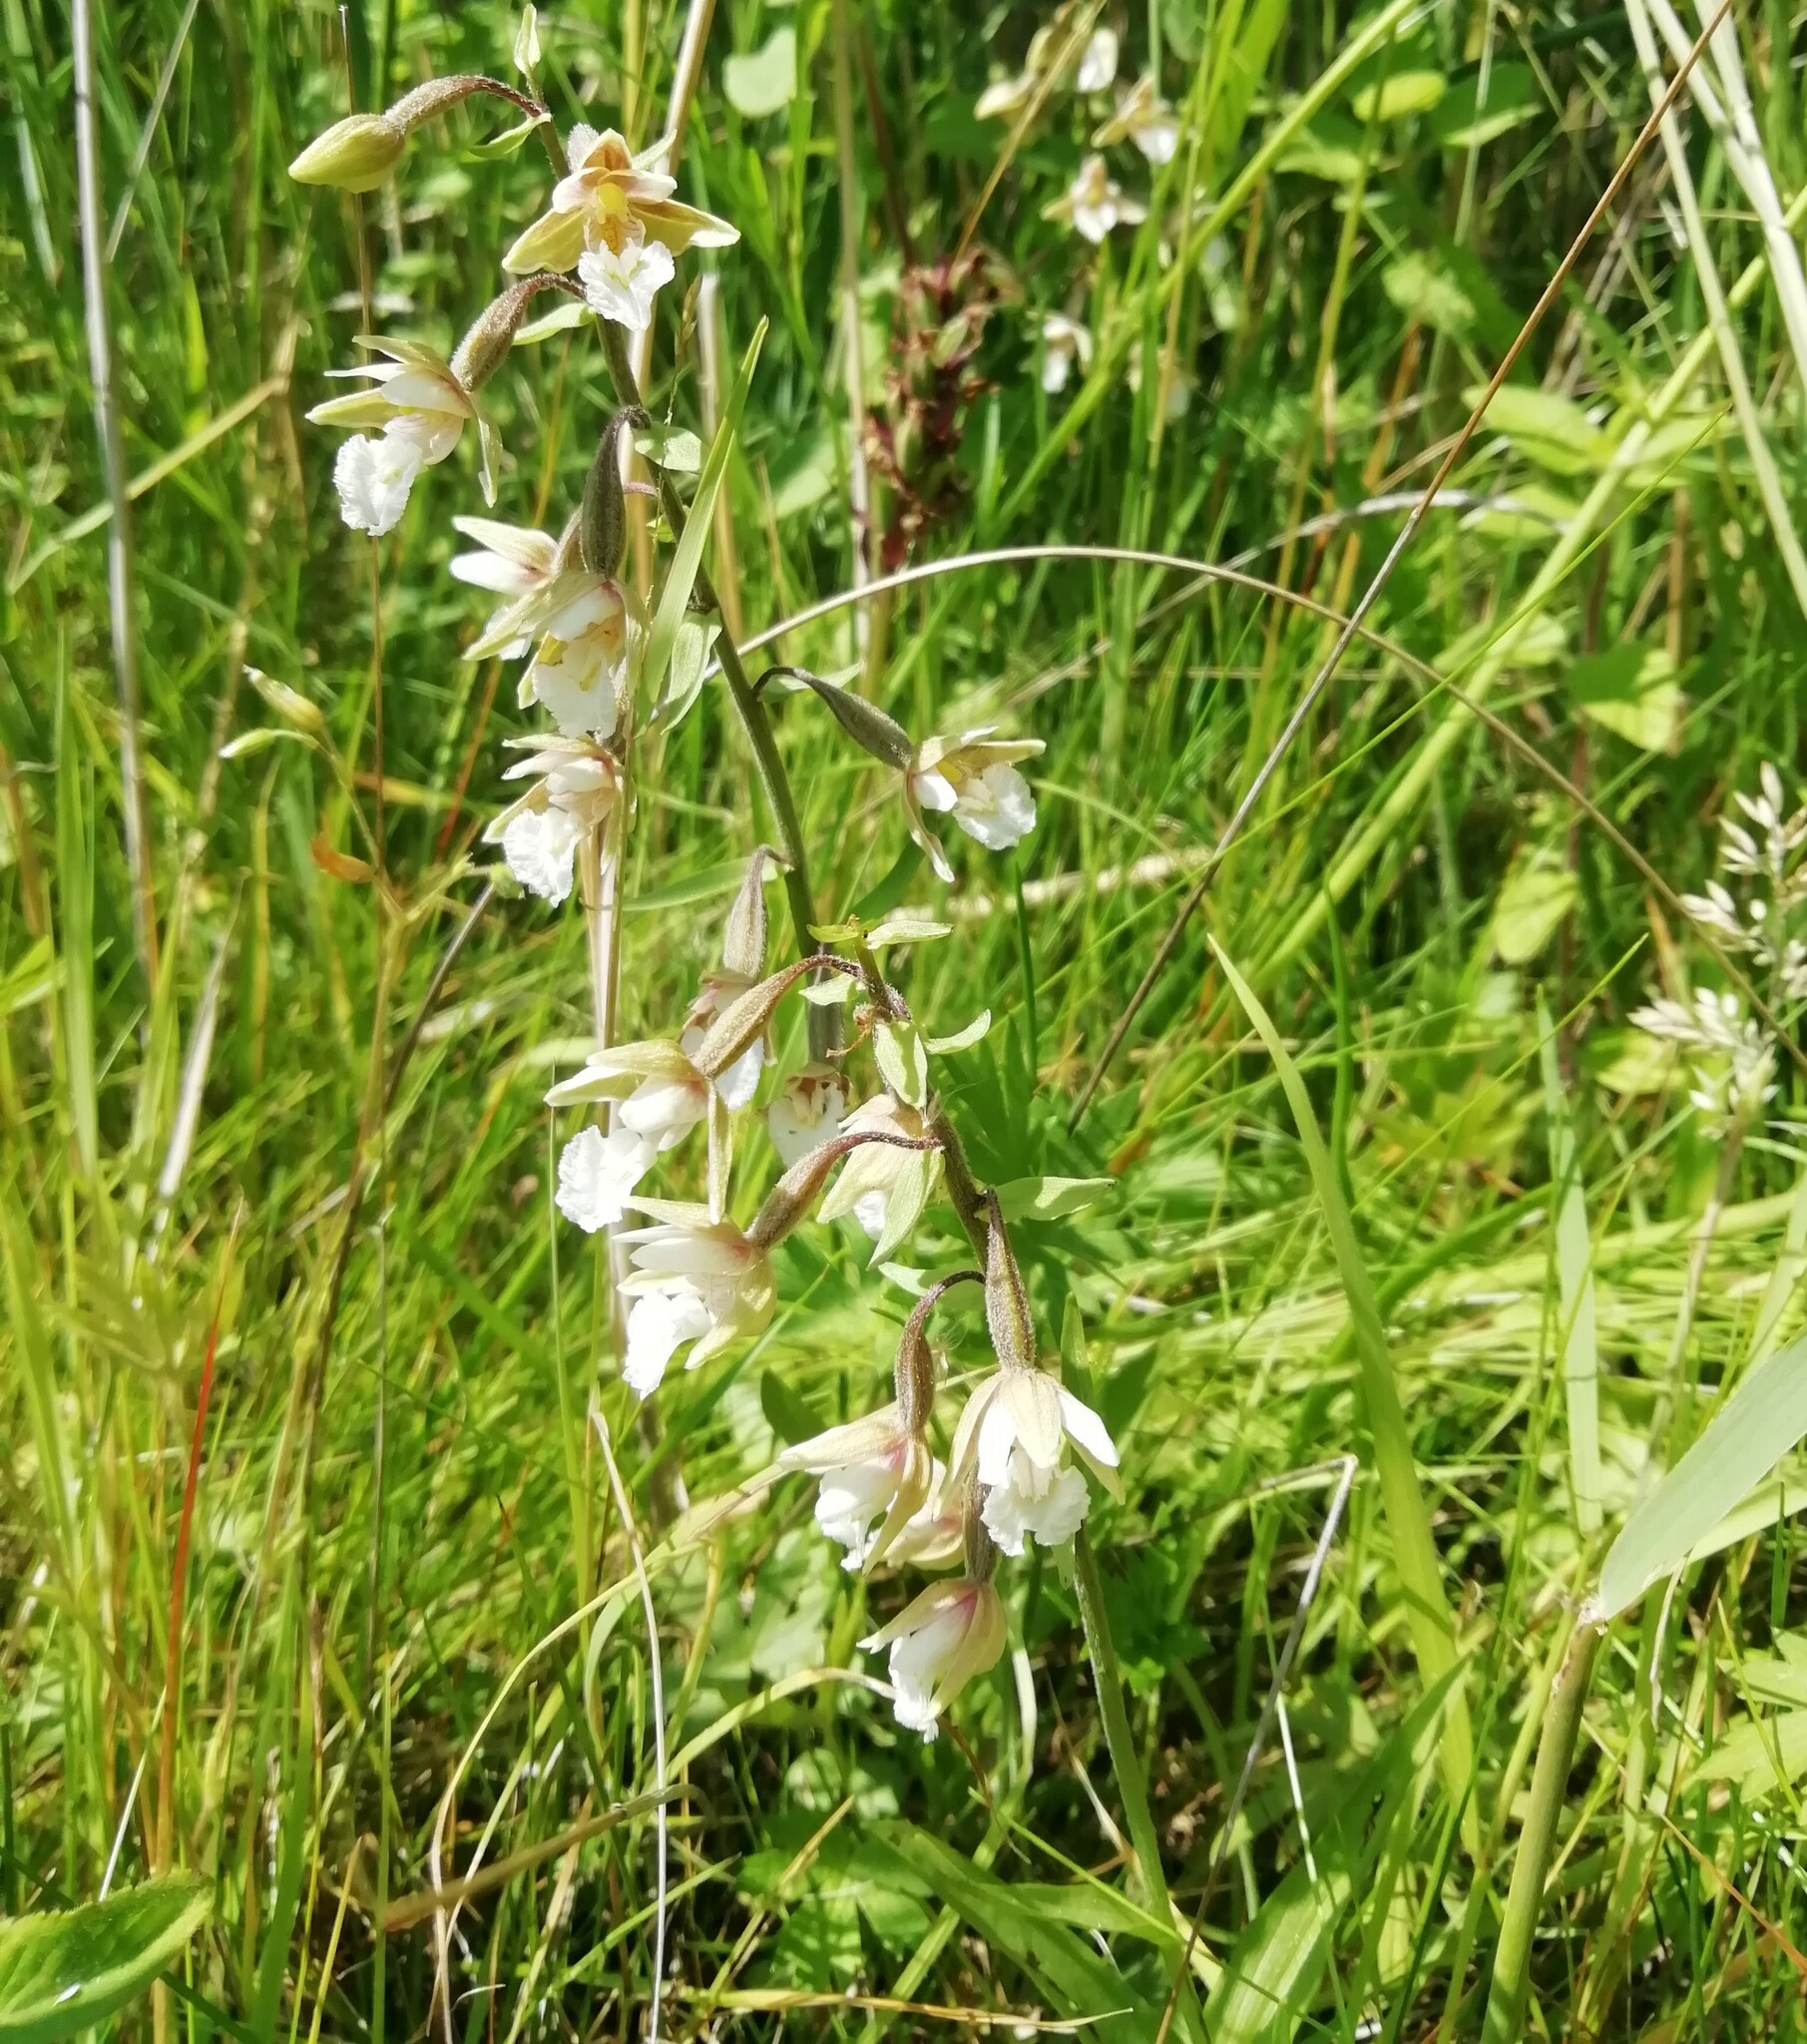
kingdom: Plantae
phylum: Tracheophyta
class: Liliopsida
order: Asparagales
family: Orchidaceae
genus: Epipactis
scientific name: Epipactis palustris
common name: Marsh helleborine
